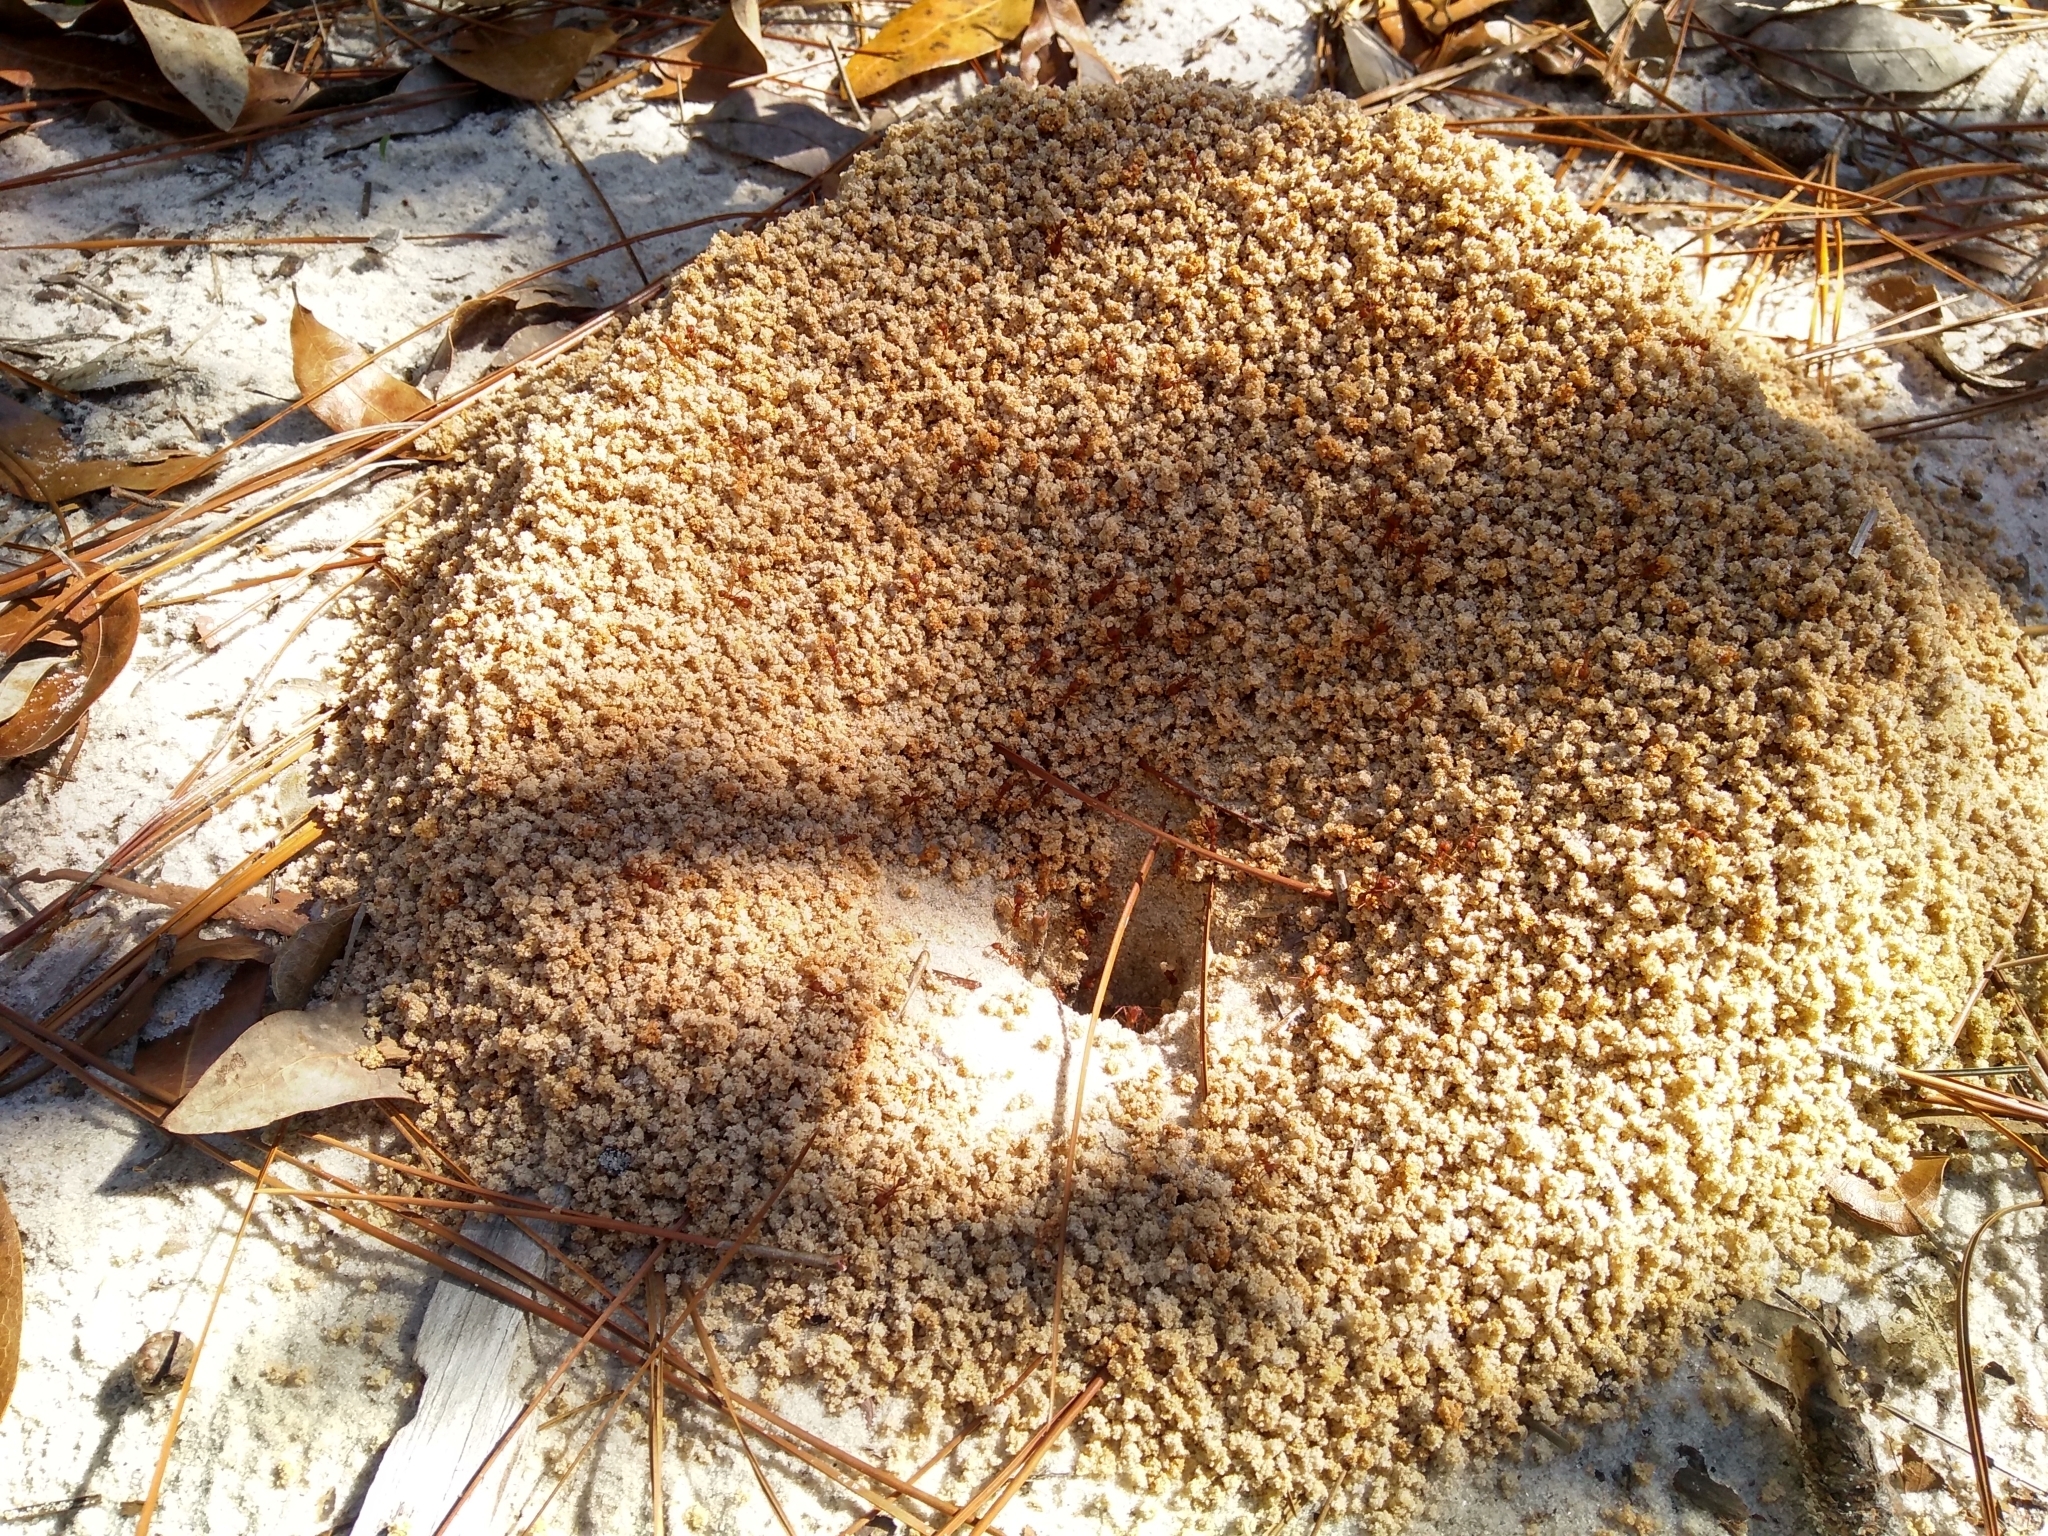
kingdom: Animalia
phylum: Arthropoda
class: Insecta
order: Hymenoptera
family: Formicidae
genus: Atta
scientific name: Atta texana
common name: Texas leafcutting ant
